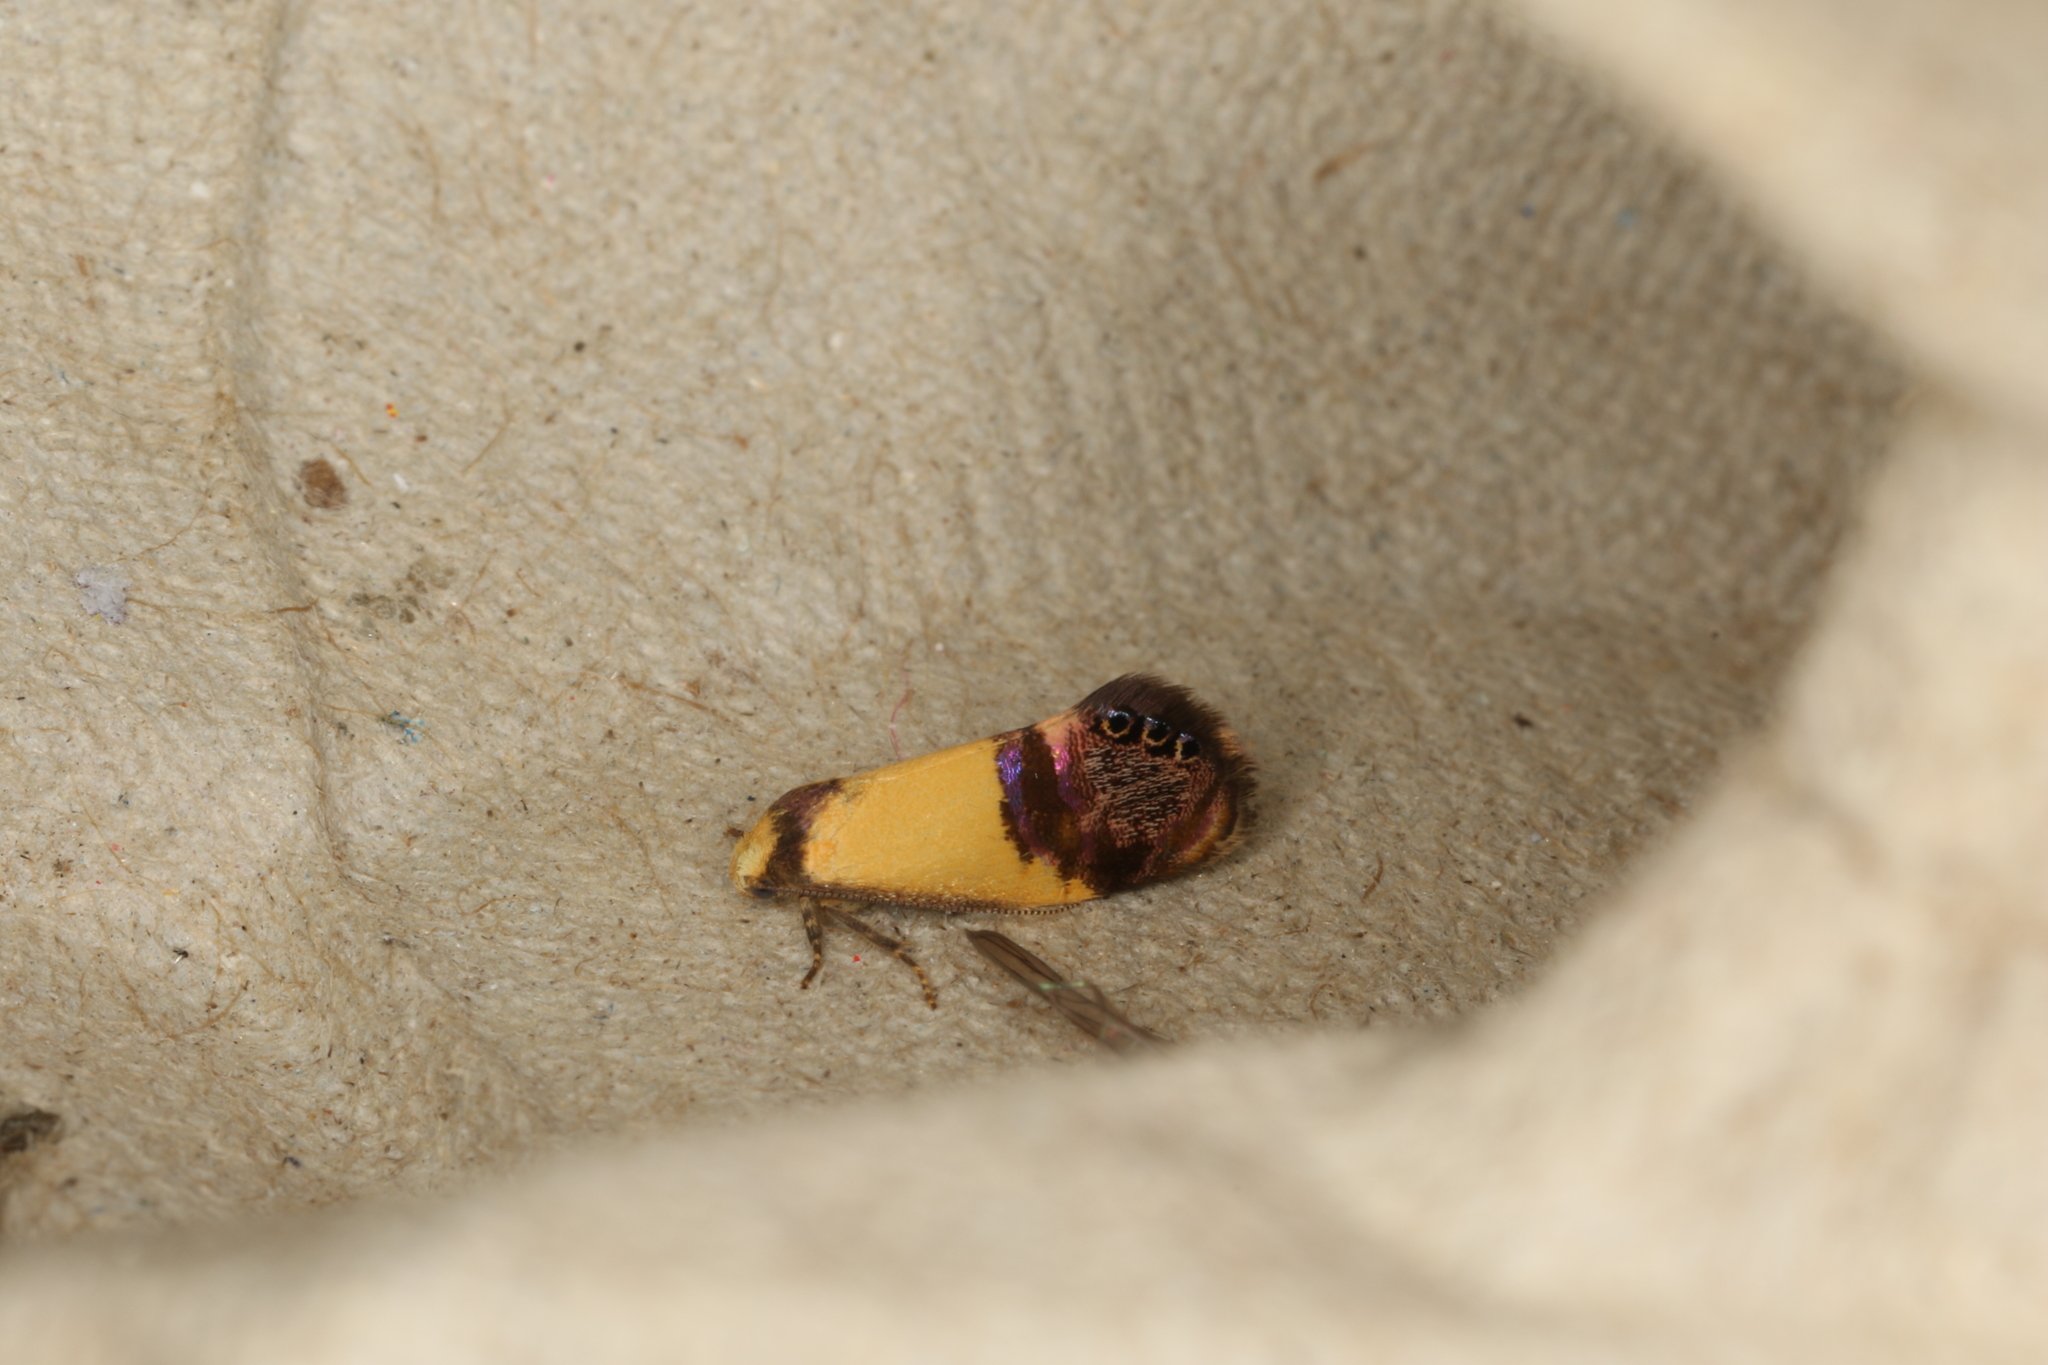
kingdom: Animalia
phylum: Arthropoda
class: Insecta
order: Lepidoptera
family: Depressariidae
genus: Eupselia
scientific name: Eupselia satrapella
